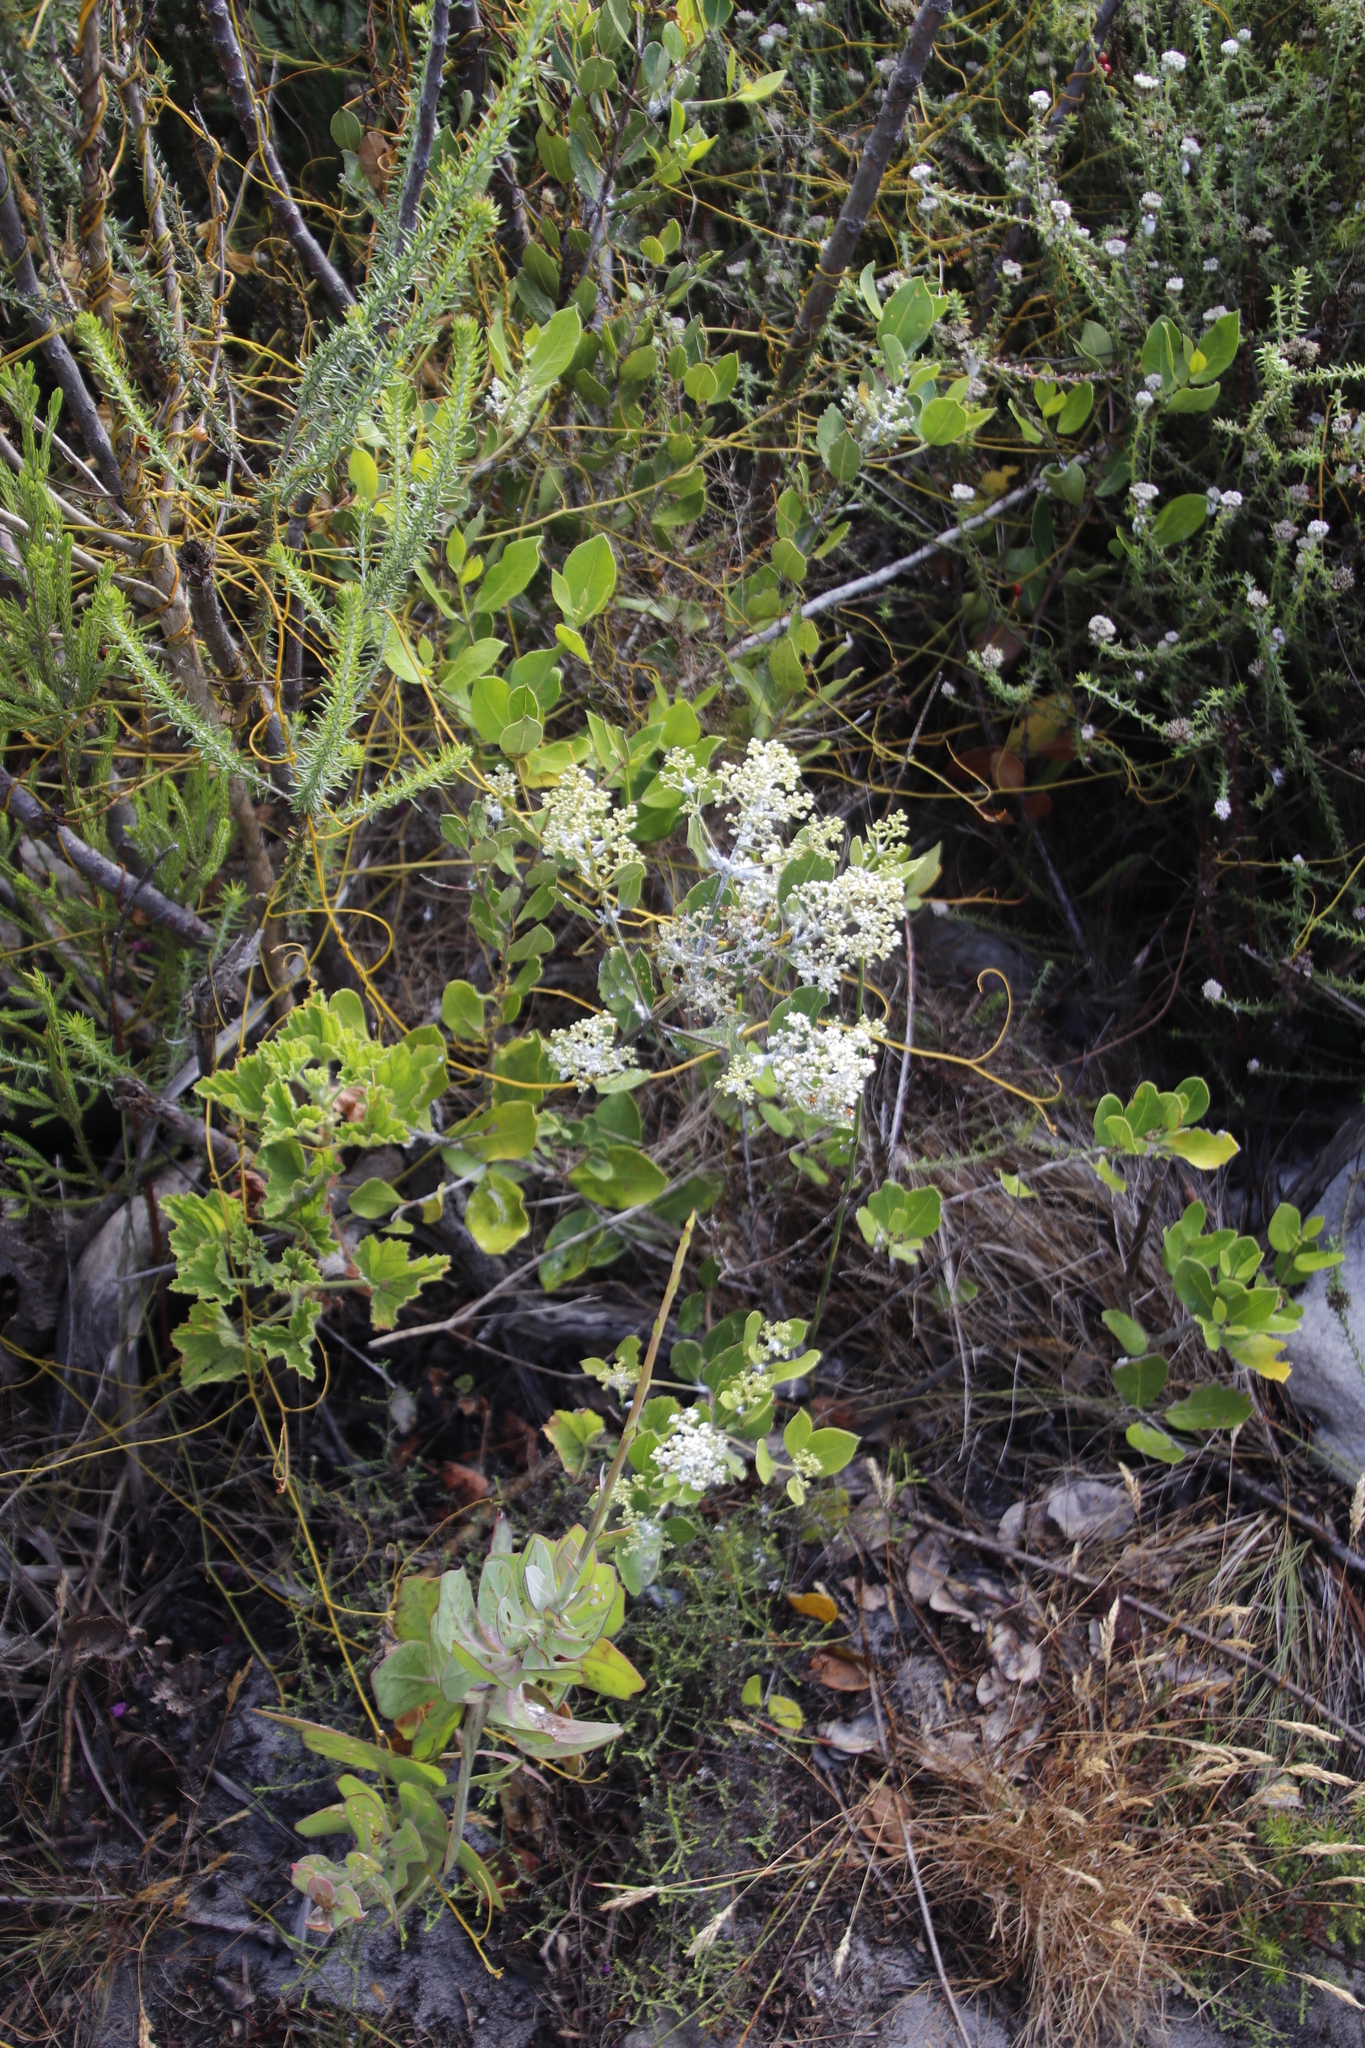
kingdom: Plantae
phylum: Tracheophyta
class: Magnoliopsida
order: Lamiales
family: Oleaceae
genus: Olea
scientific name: Olea capensis
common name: Black ironwood
